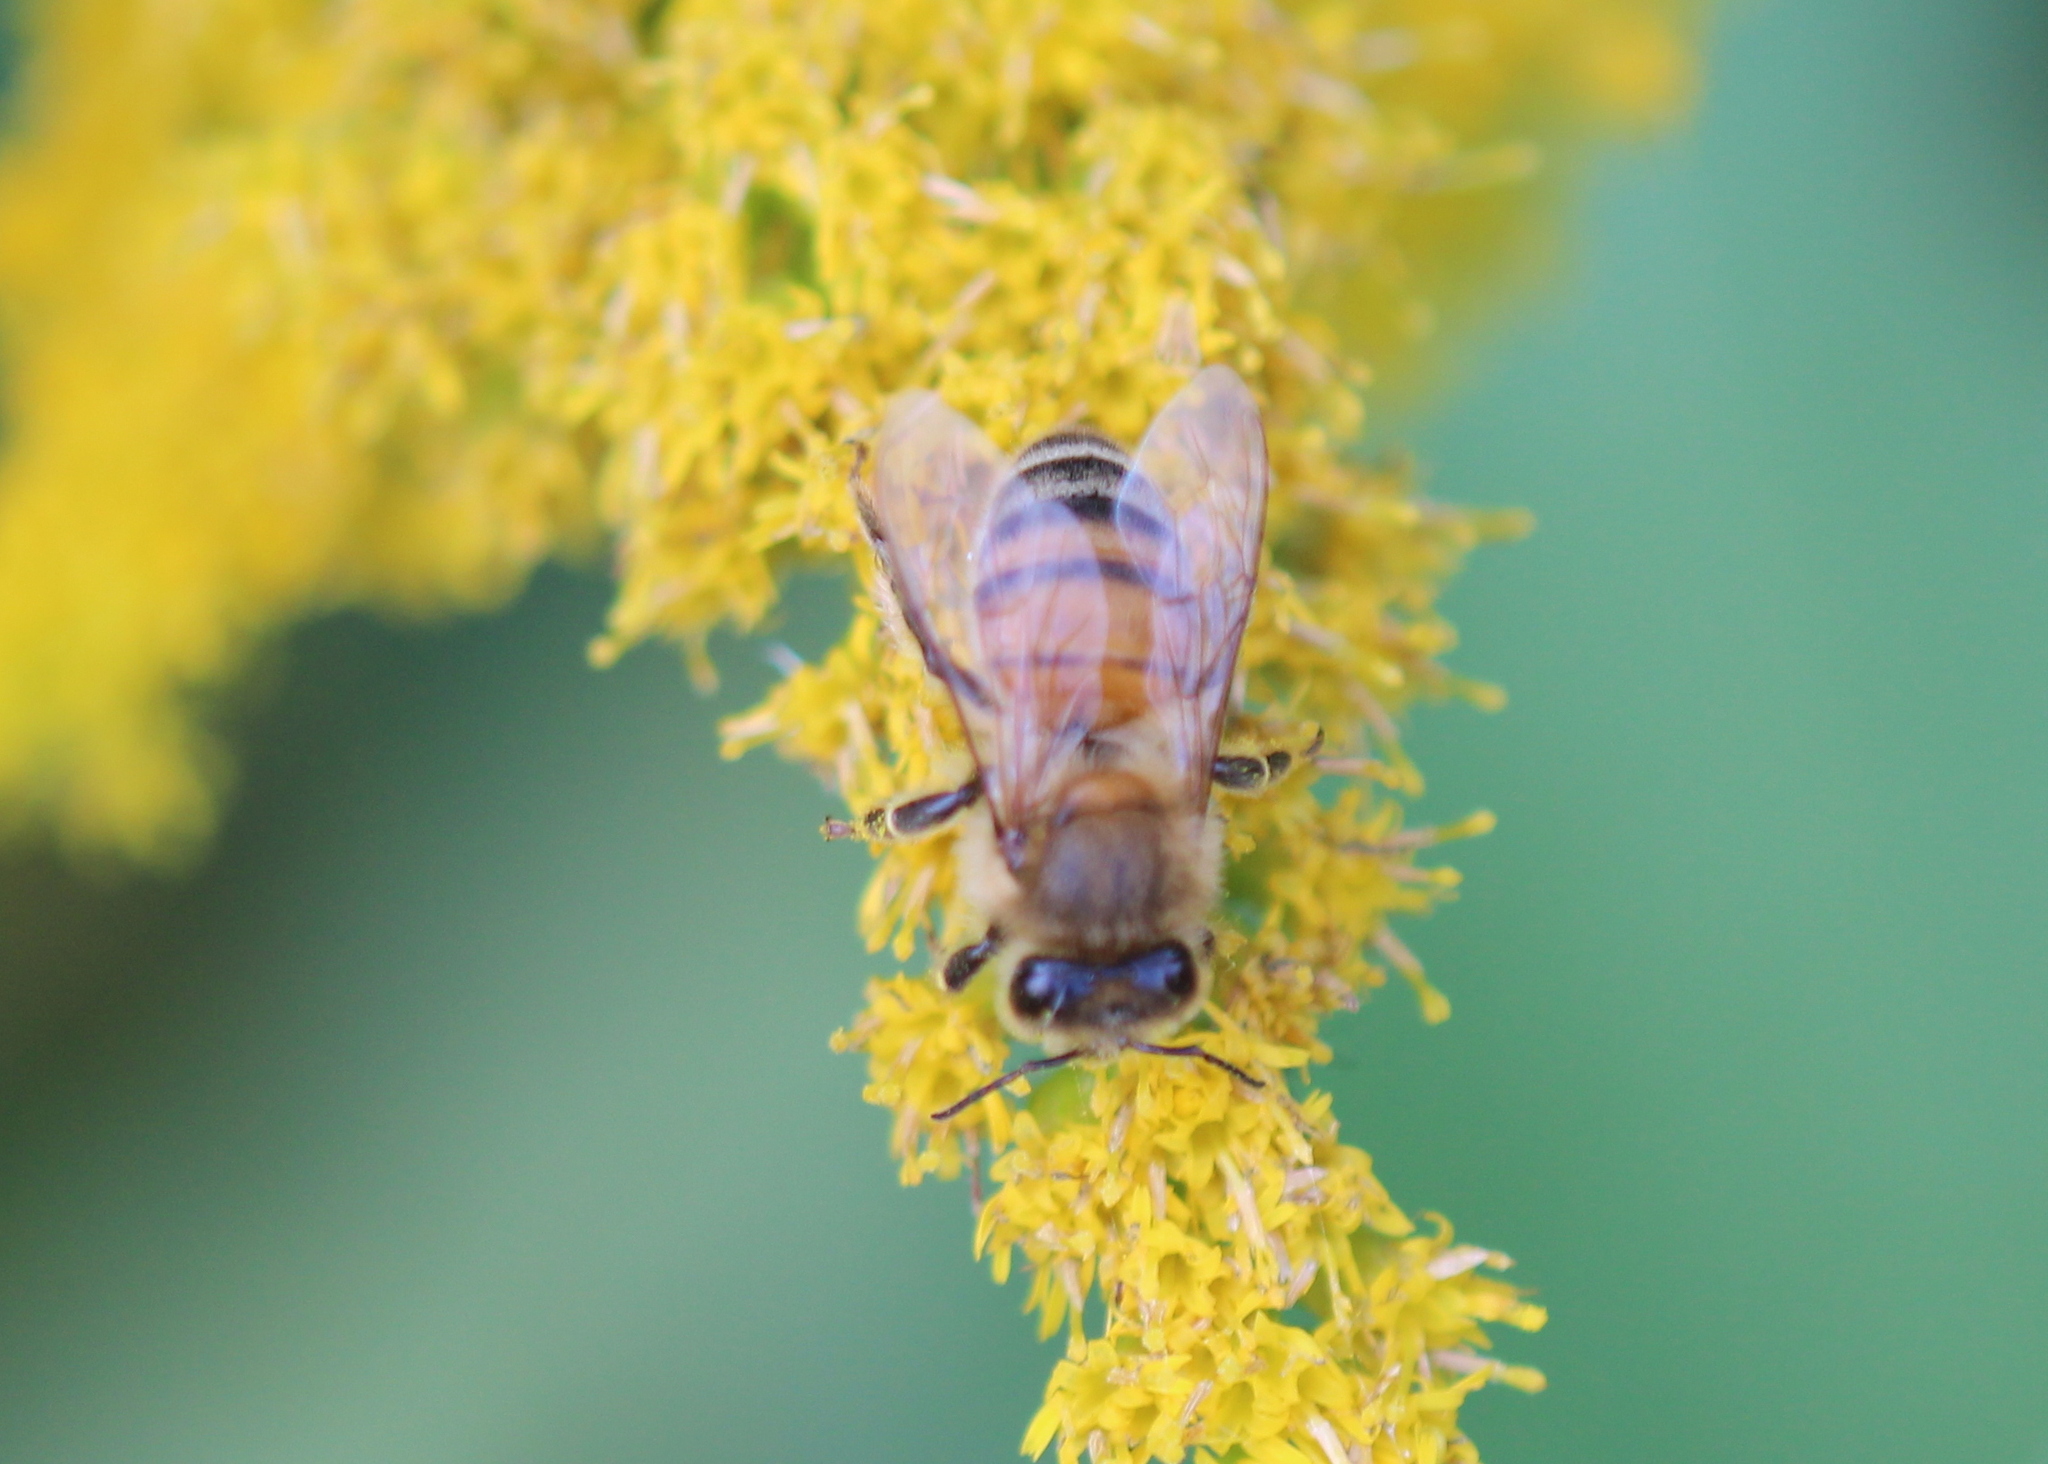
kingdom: Animalia
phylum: Arthropoda
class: Insecta
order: Hymenoptera
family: Apidae
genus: Apis
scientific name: Apis mellifera
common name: Honey bee
